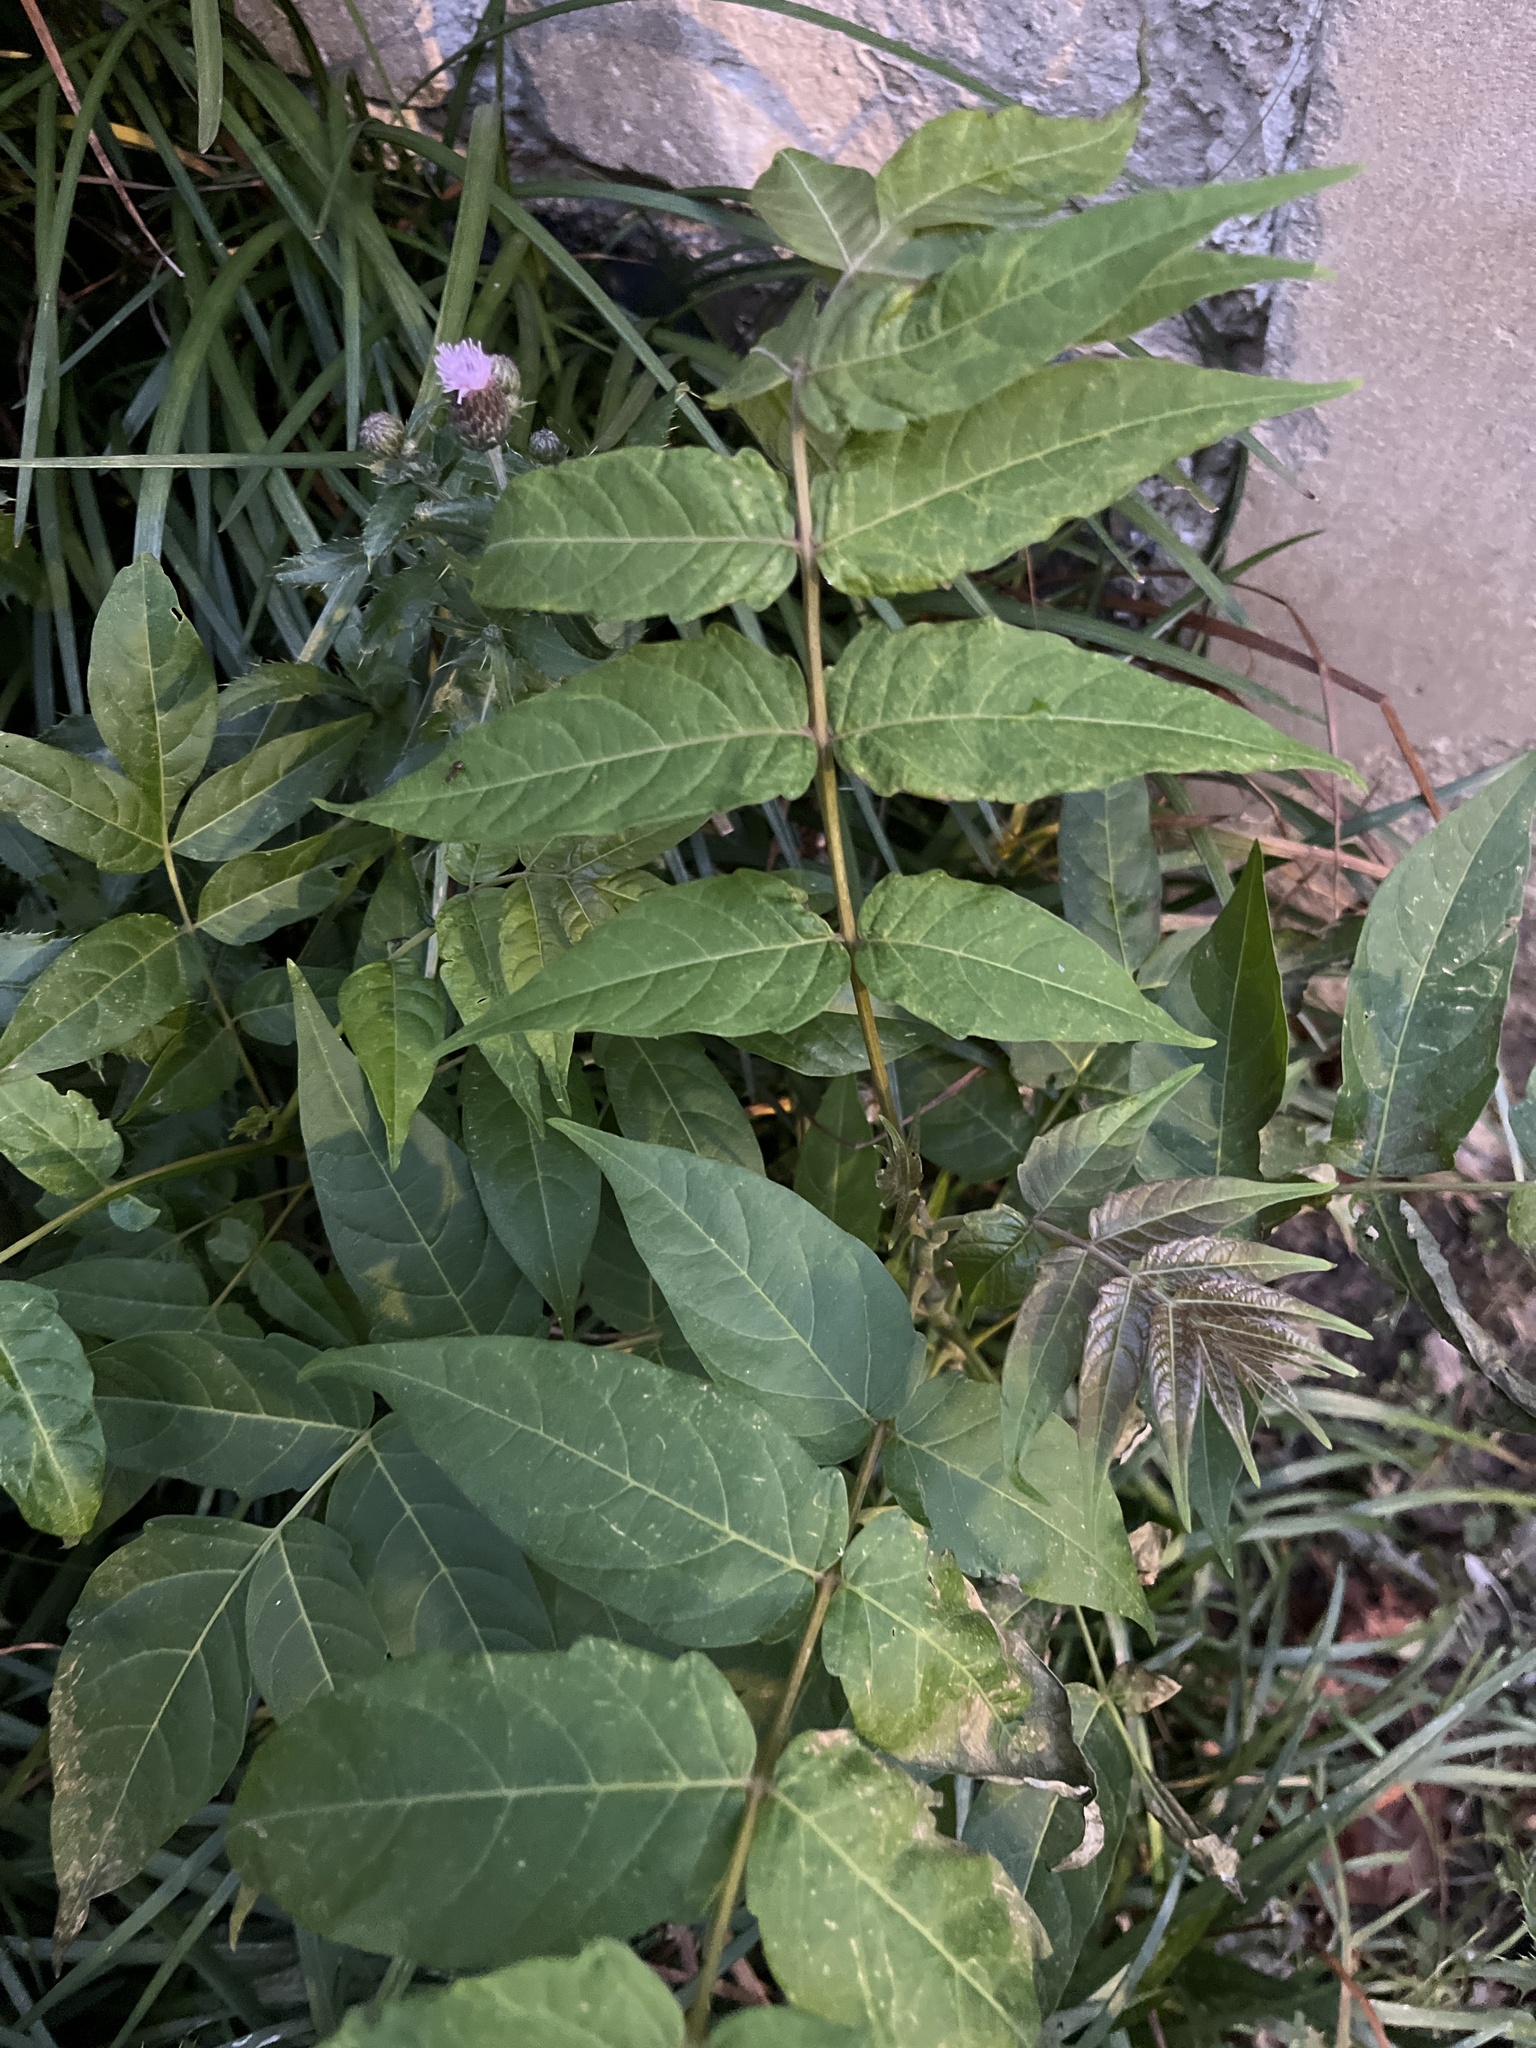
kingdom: Plantae
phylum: Tracheophyta
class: Magnoliopsida
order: Sapindales
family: Simaroubaceae
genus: Ailanthus
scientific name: Ailanthus altissima
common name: Tree-of-heaven
